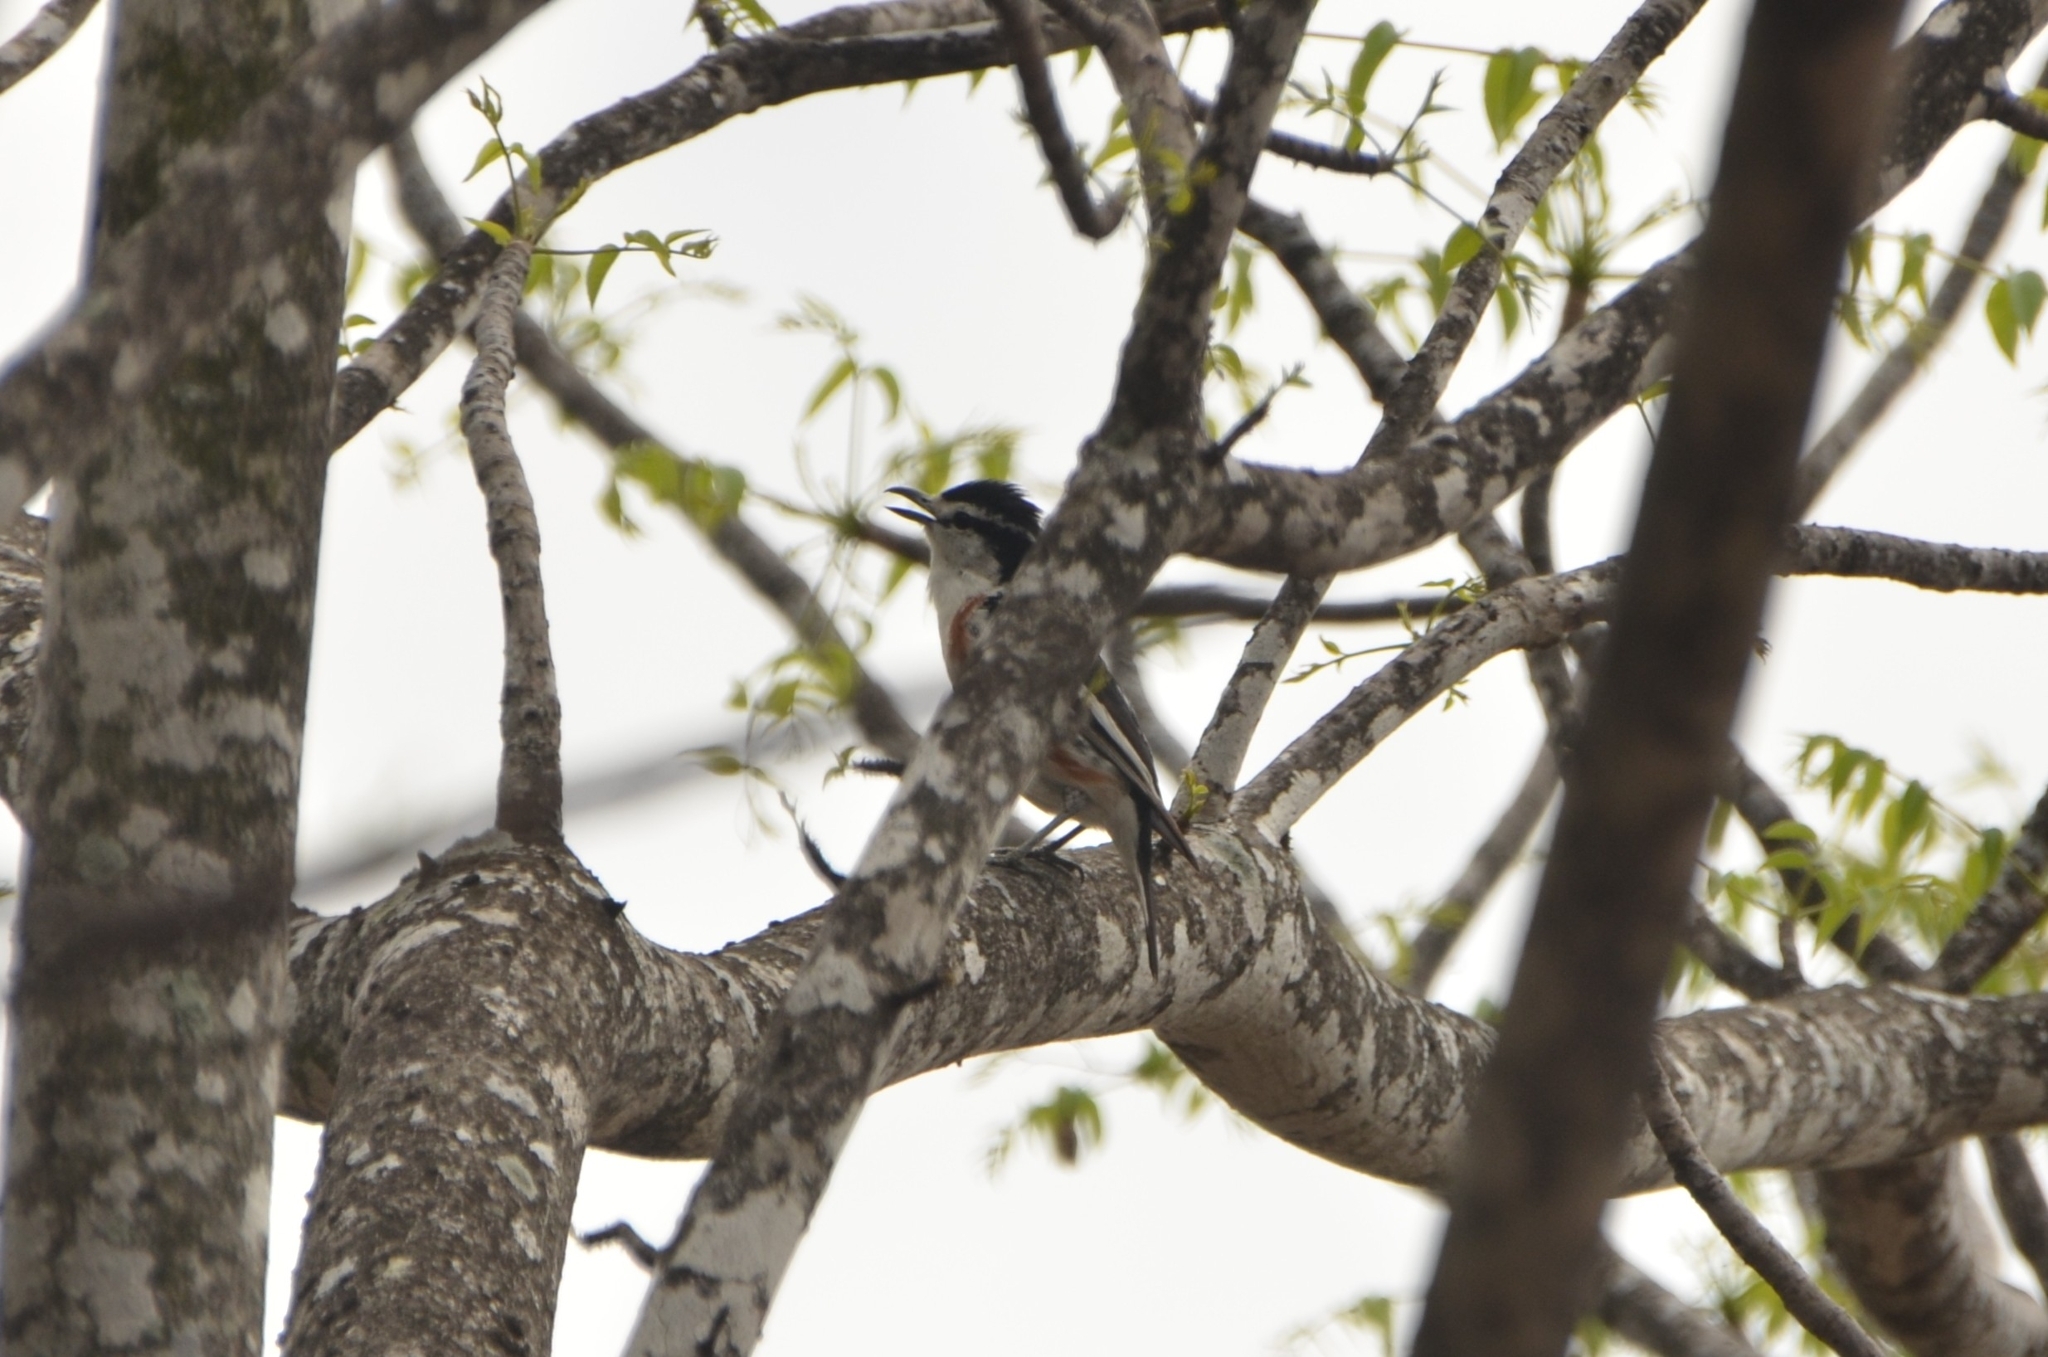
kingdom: Animalia
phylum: Chordata
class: Aves
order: Passeriformes
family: Malaconotidae
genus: Nilaus
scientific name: Nilaus afer
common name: Brubru
